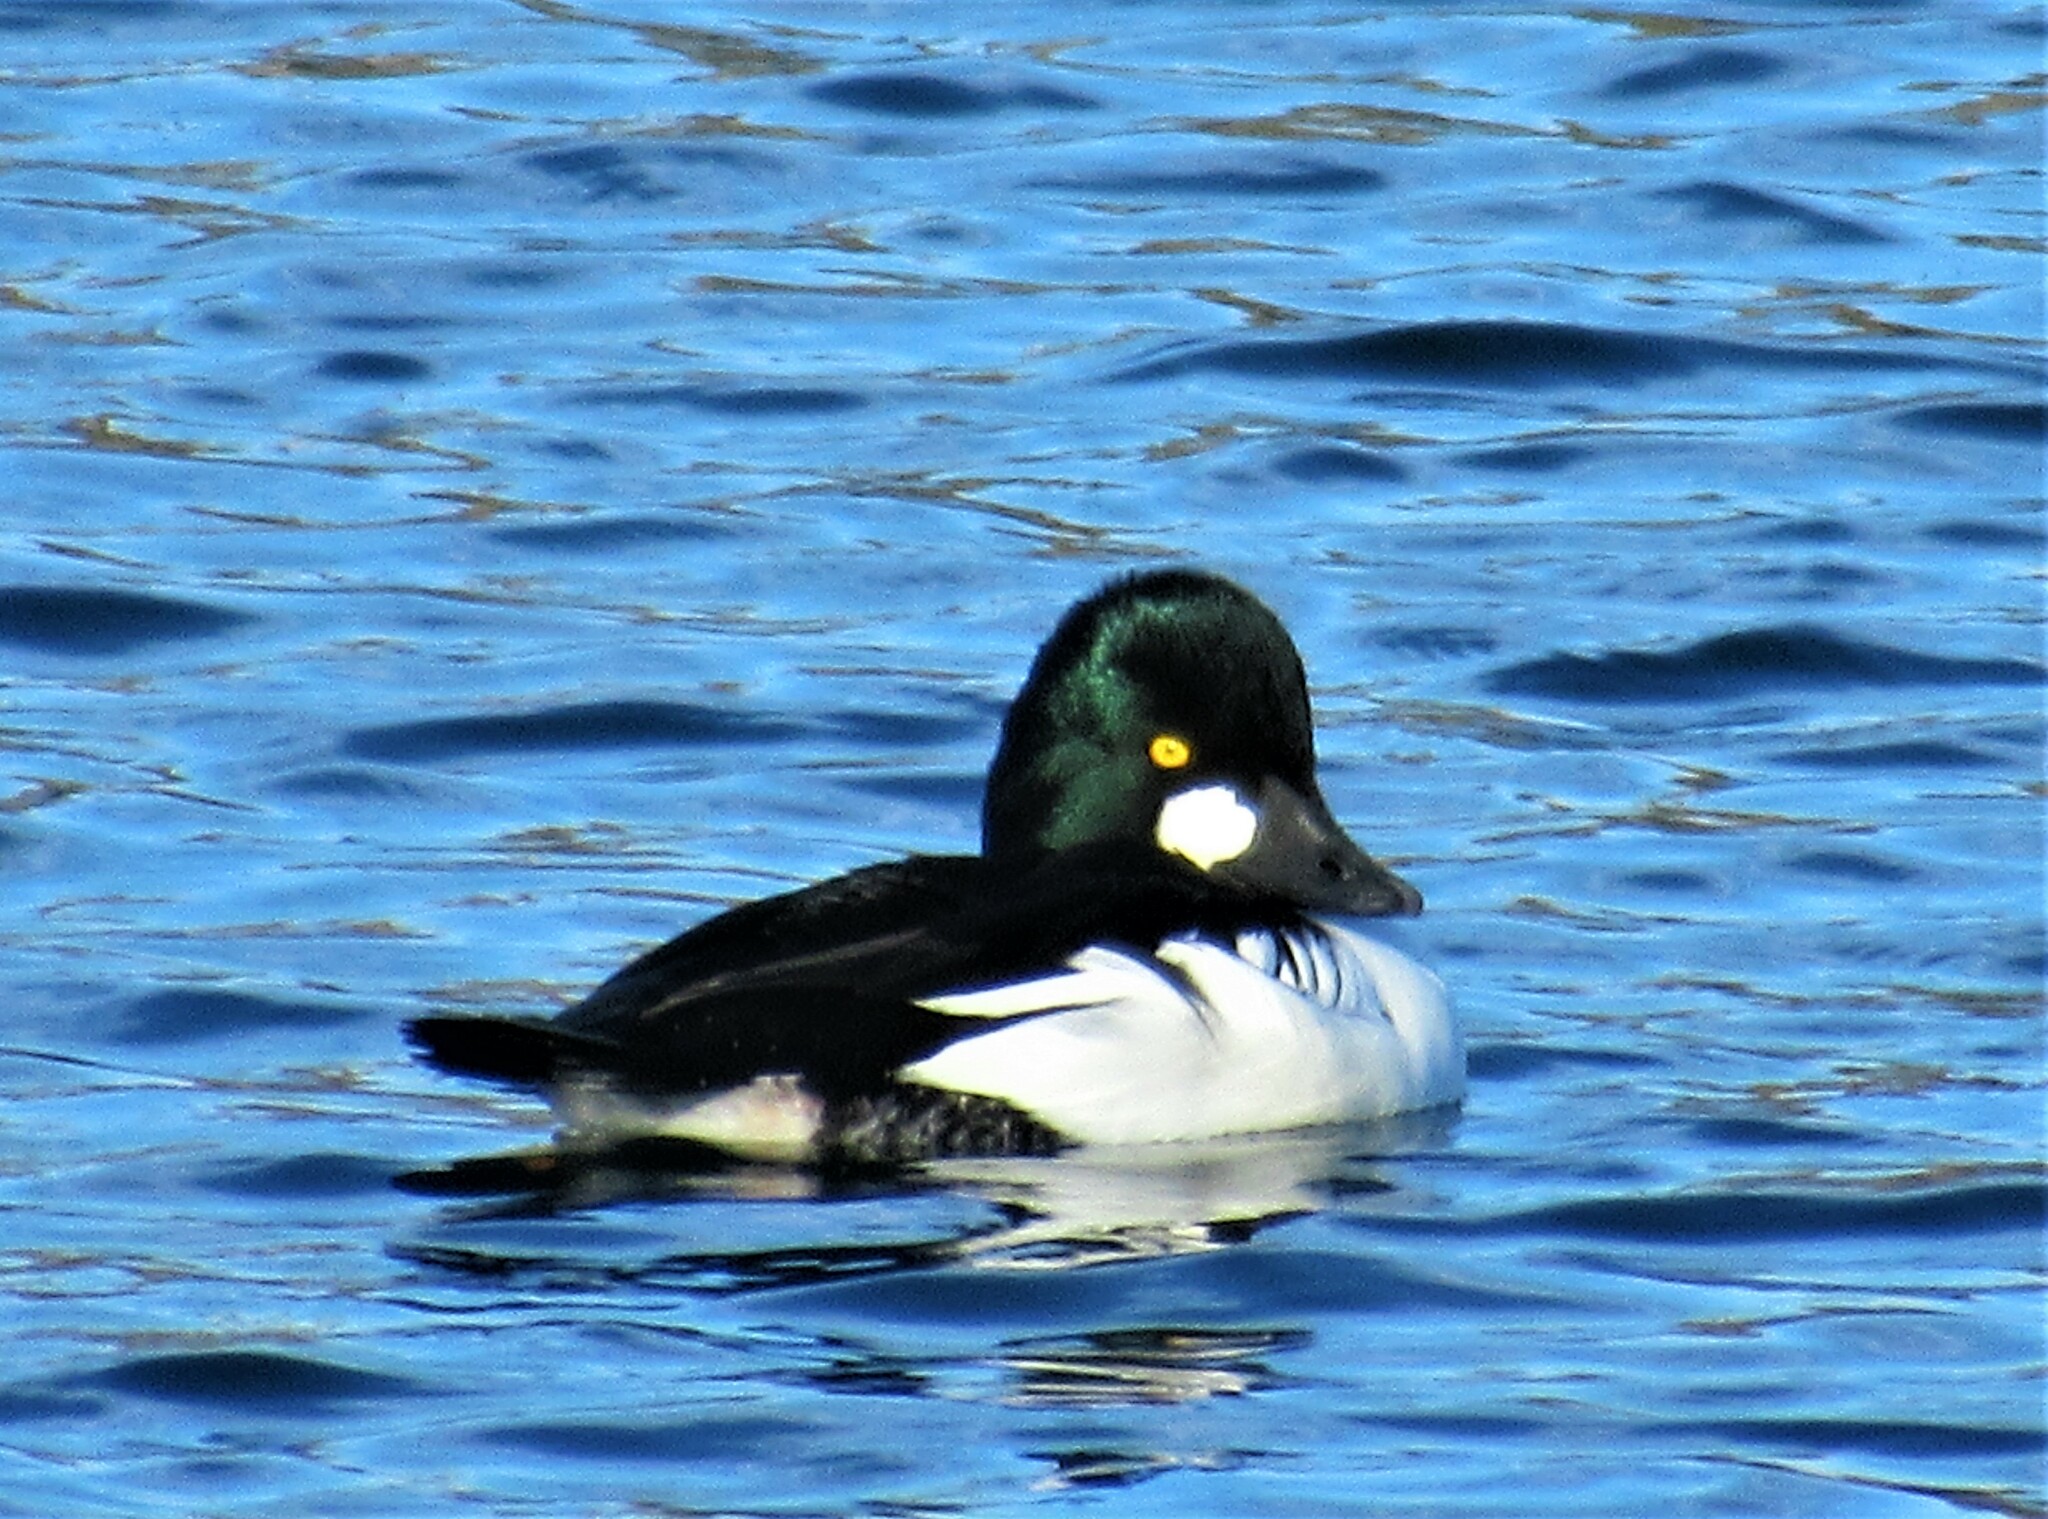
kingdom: Animalia
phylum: Chordata
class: Aves
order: Anseriformes
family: Anatidae
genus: Bucephala
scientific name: Bucephala clangula
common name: Common goldeneye
